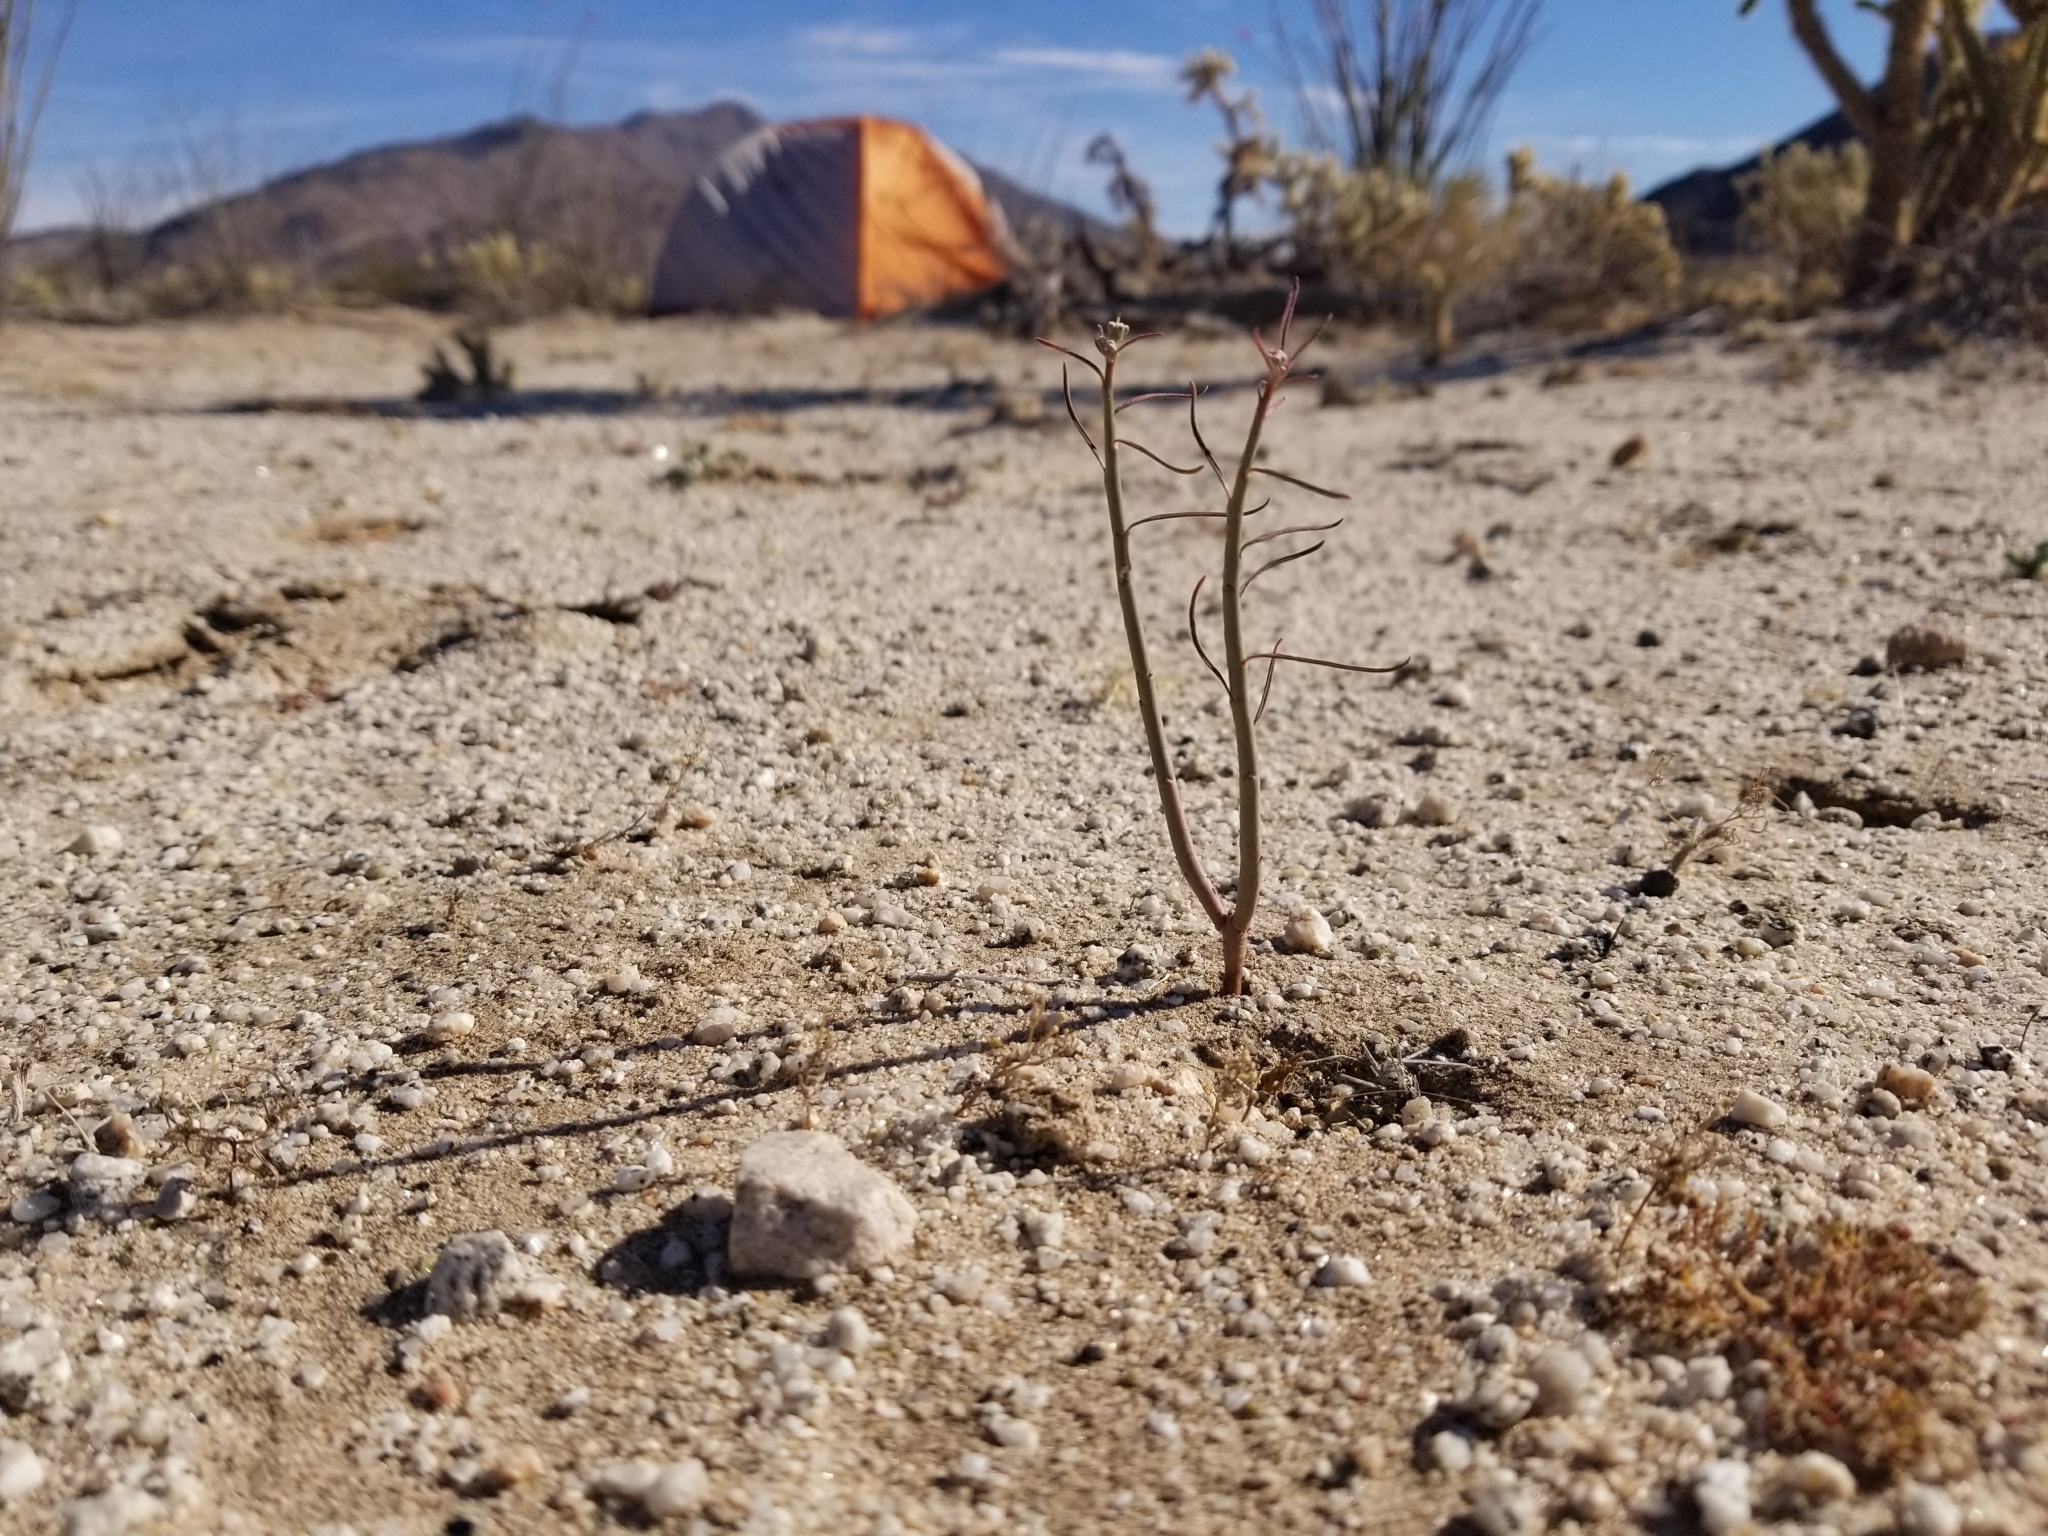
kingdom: Plantae
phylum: Tracheophyta
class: Magnoliopsida
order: Malpighiales
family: Euphorbiaceae
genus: Euphorbia
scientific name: Euphorbia eriantha
